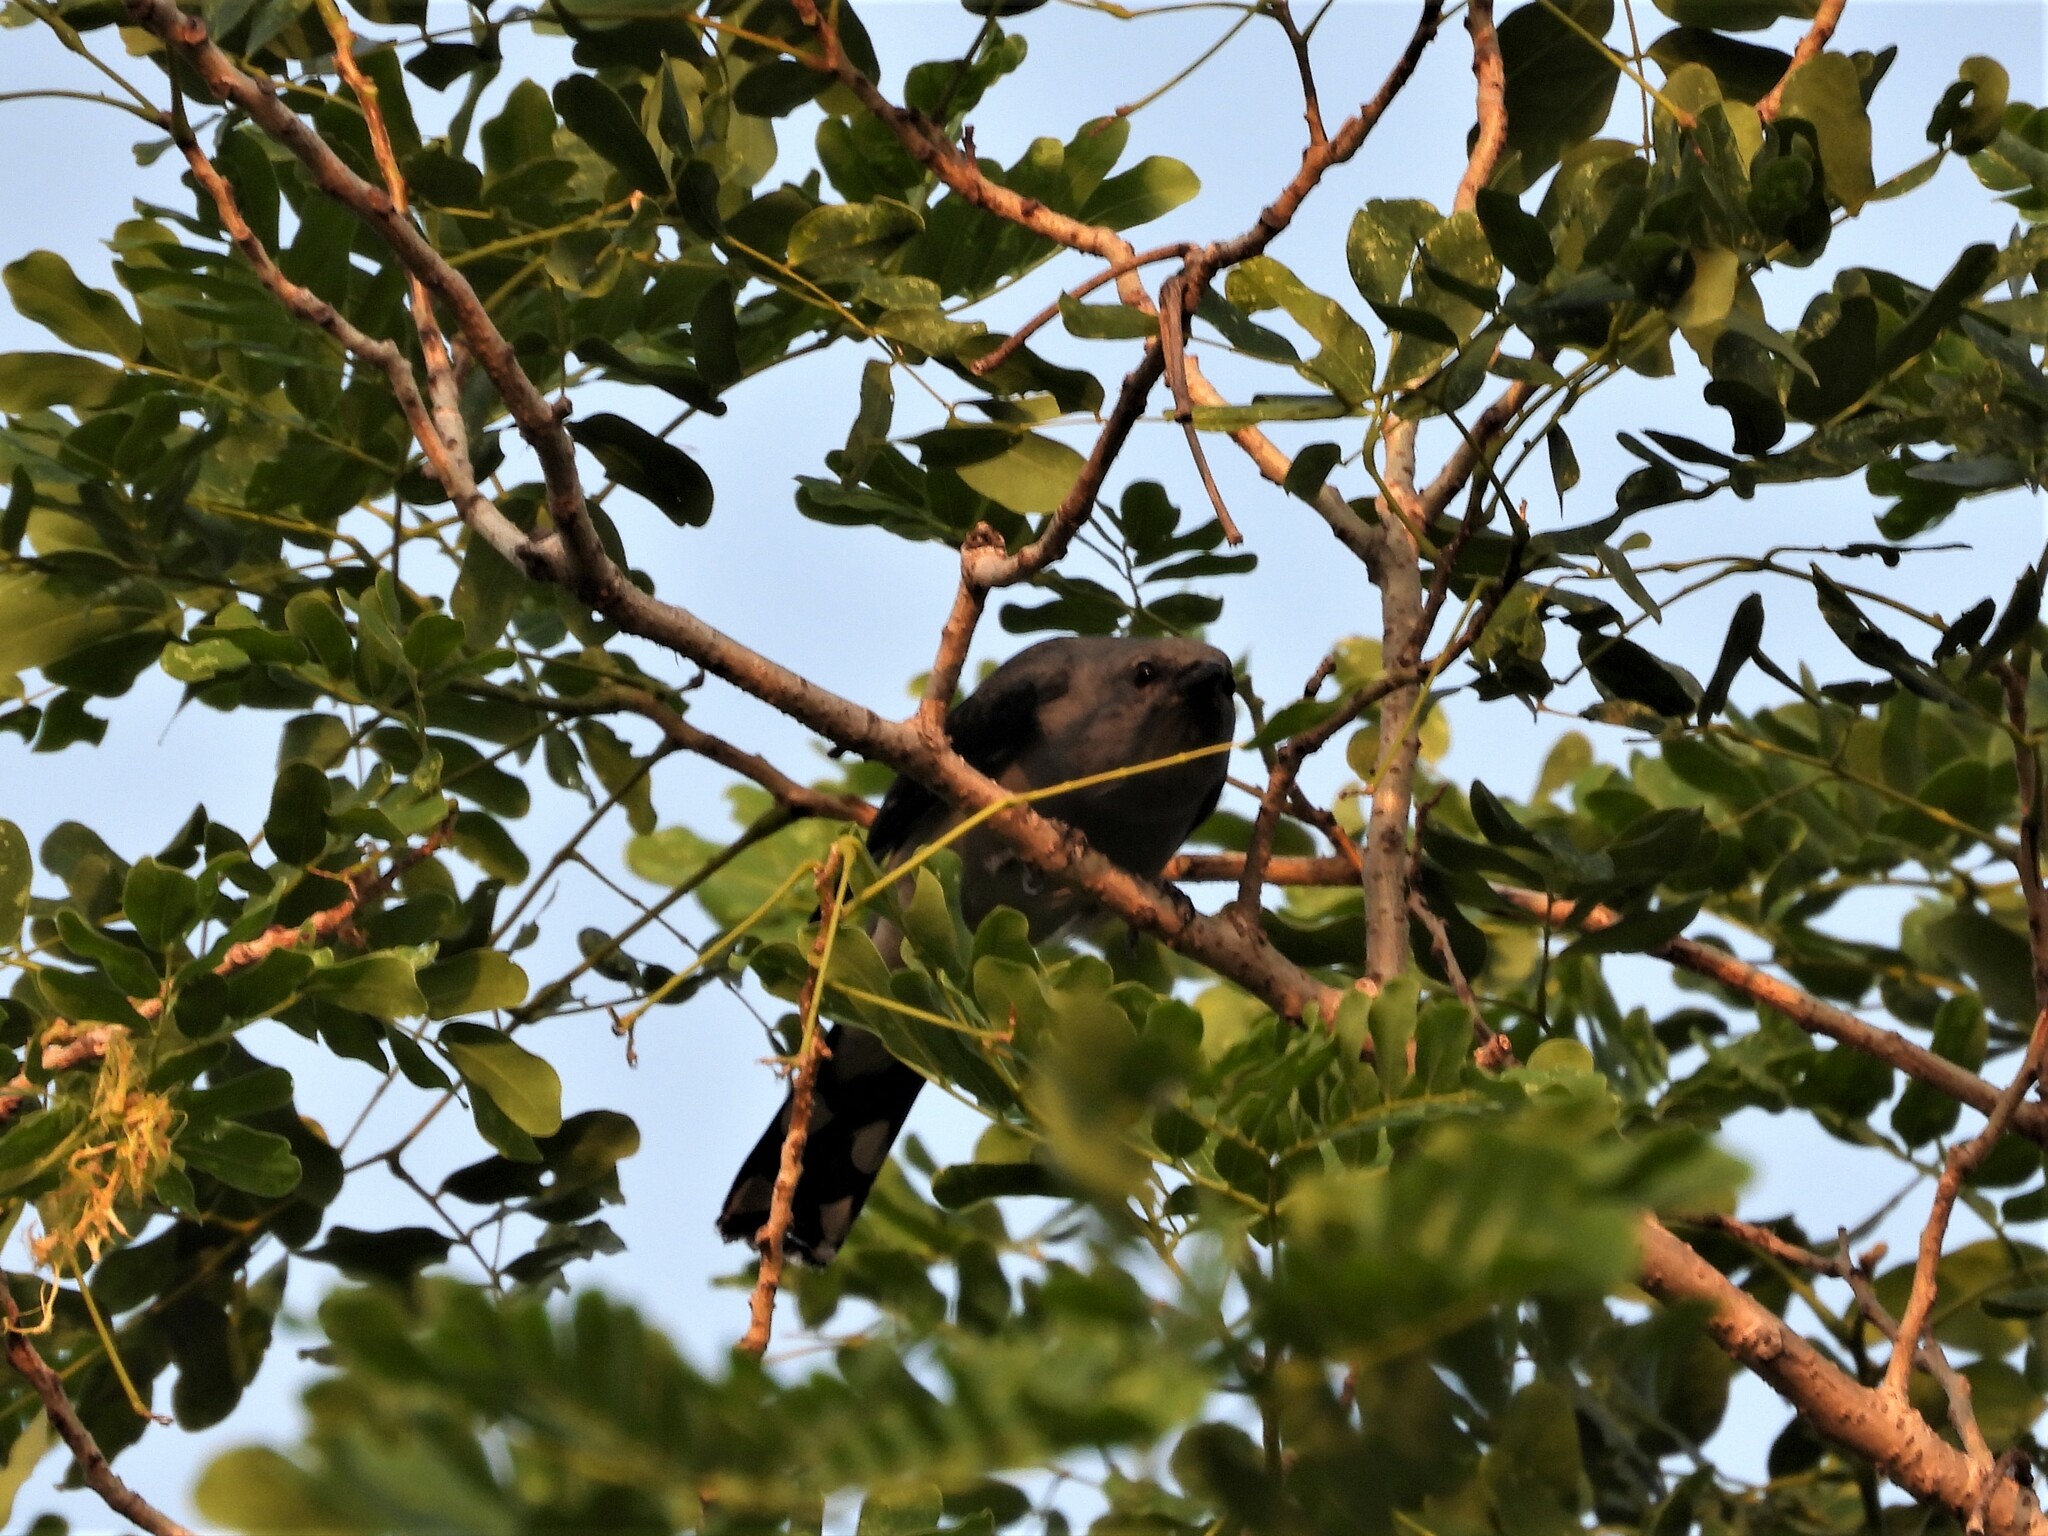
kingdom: Animalia
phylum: Chordata
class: Aves
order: Passeriformes
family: Campephagidae
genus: Coracina
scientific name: Coracina melaschistos
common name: Black-winged cuckooshrike
